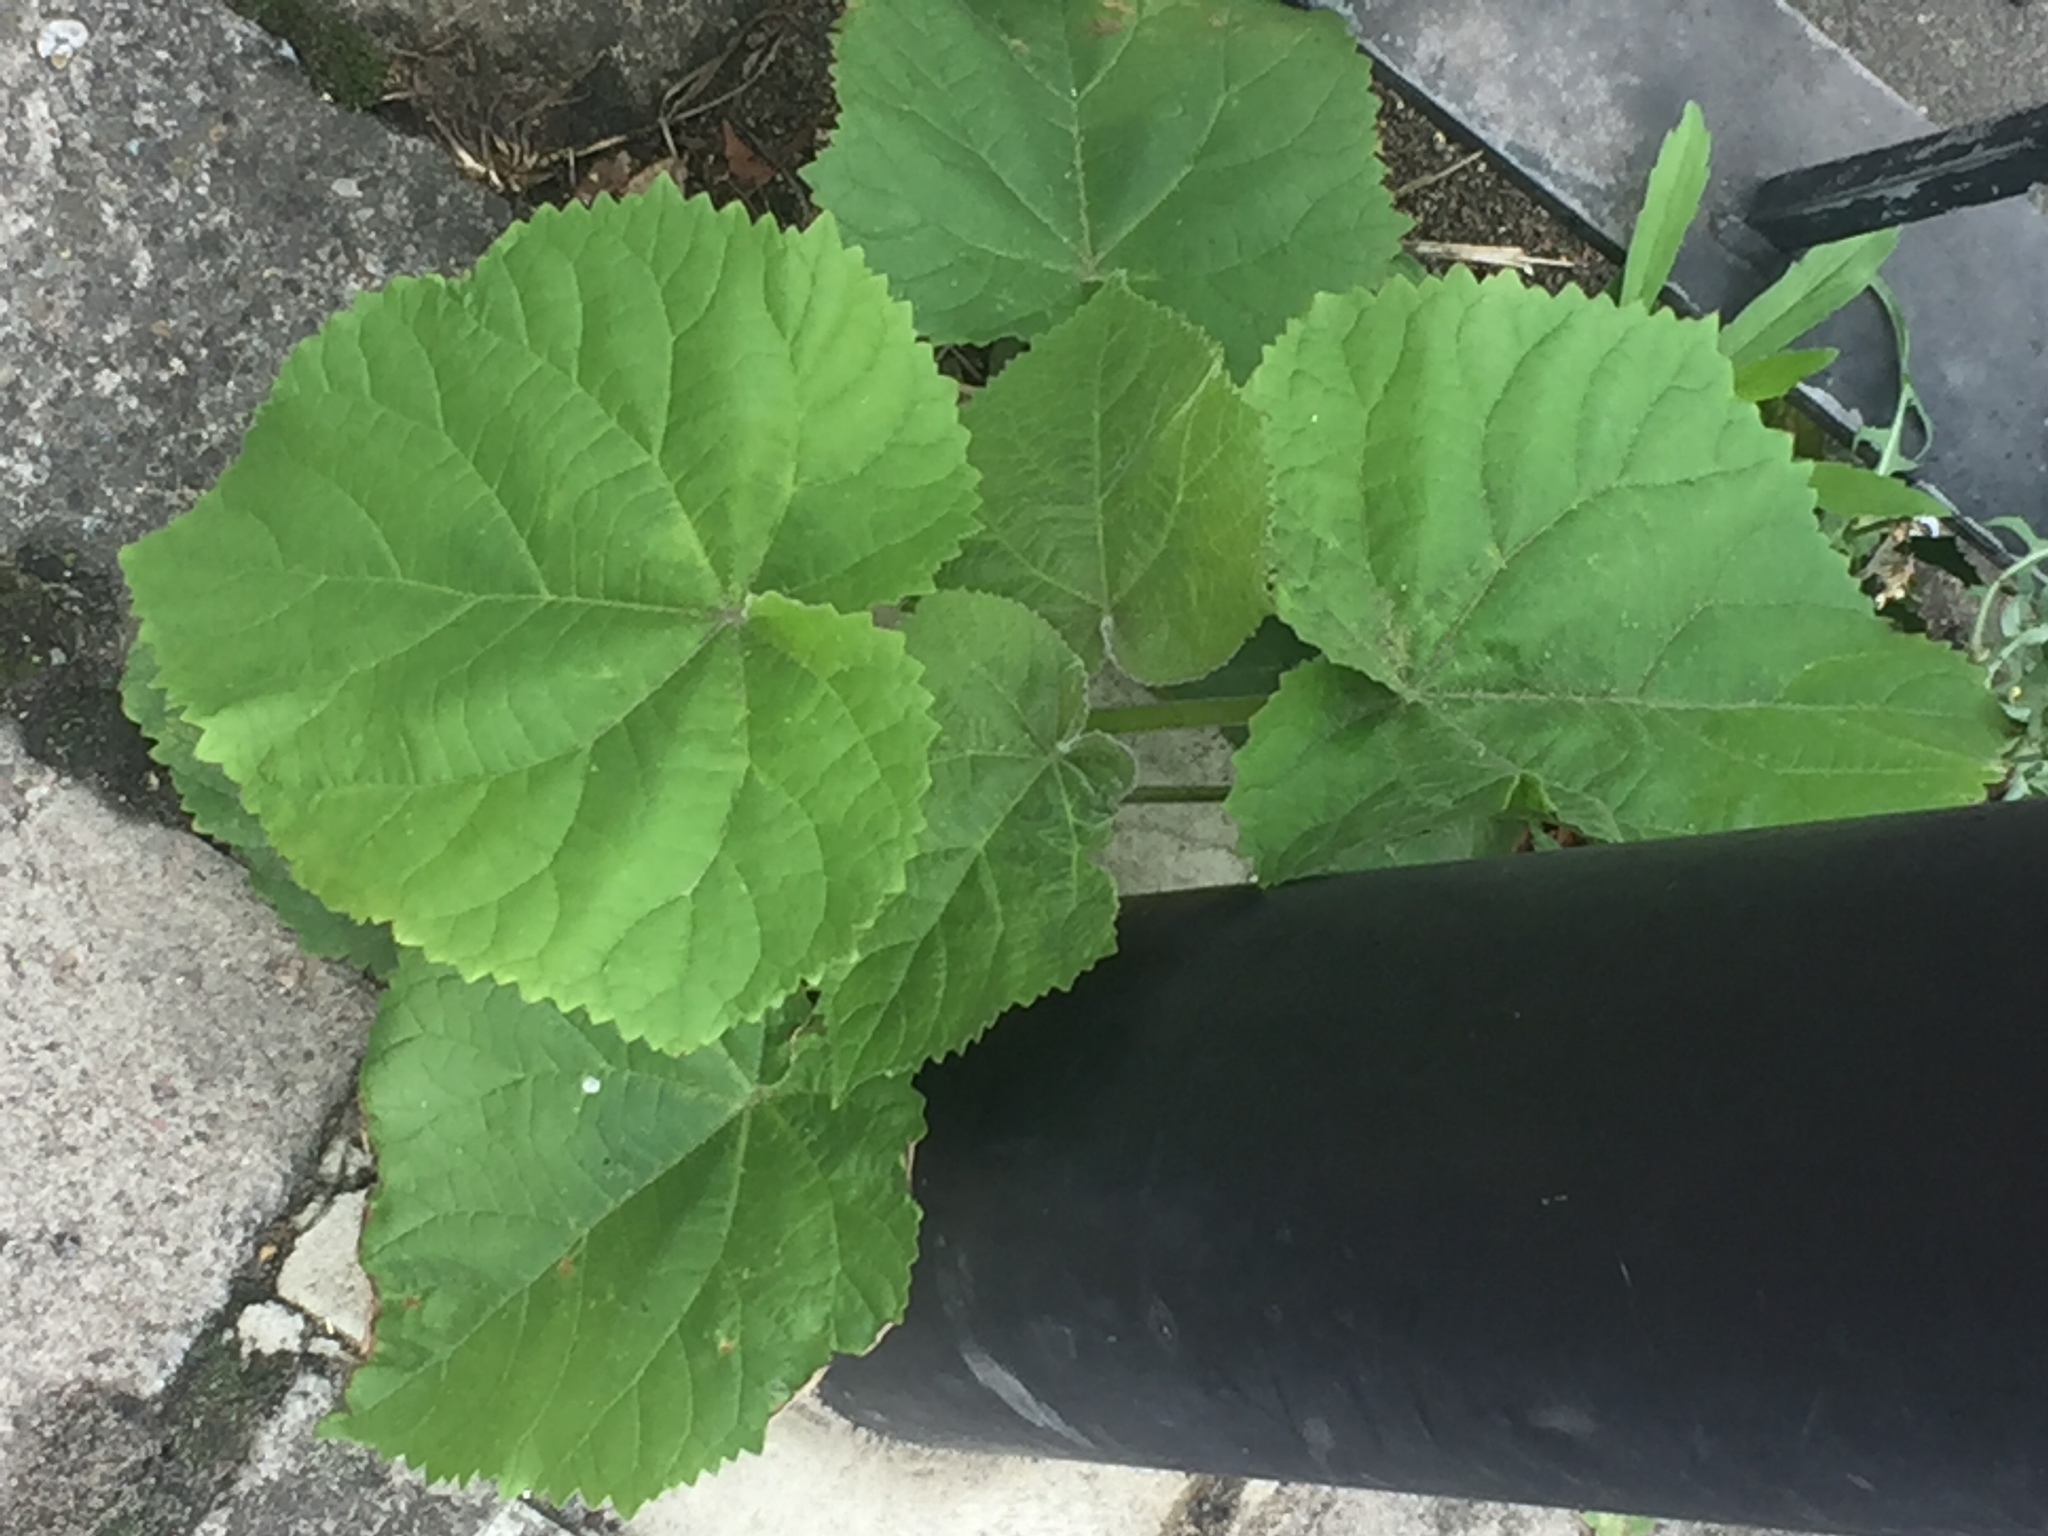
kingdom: Plantae
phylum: Tracheophyta
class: Magnoliopsida
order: Lamiales
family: Paulowniaceae
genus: Paulownia
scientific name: Paulownia tomentosa
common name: Foxglove-tree
